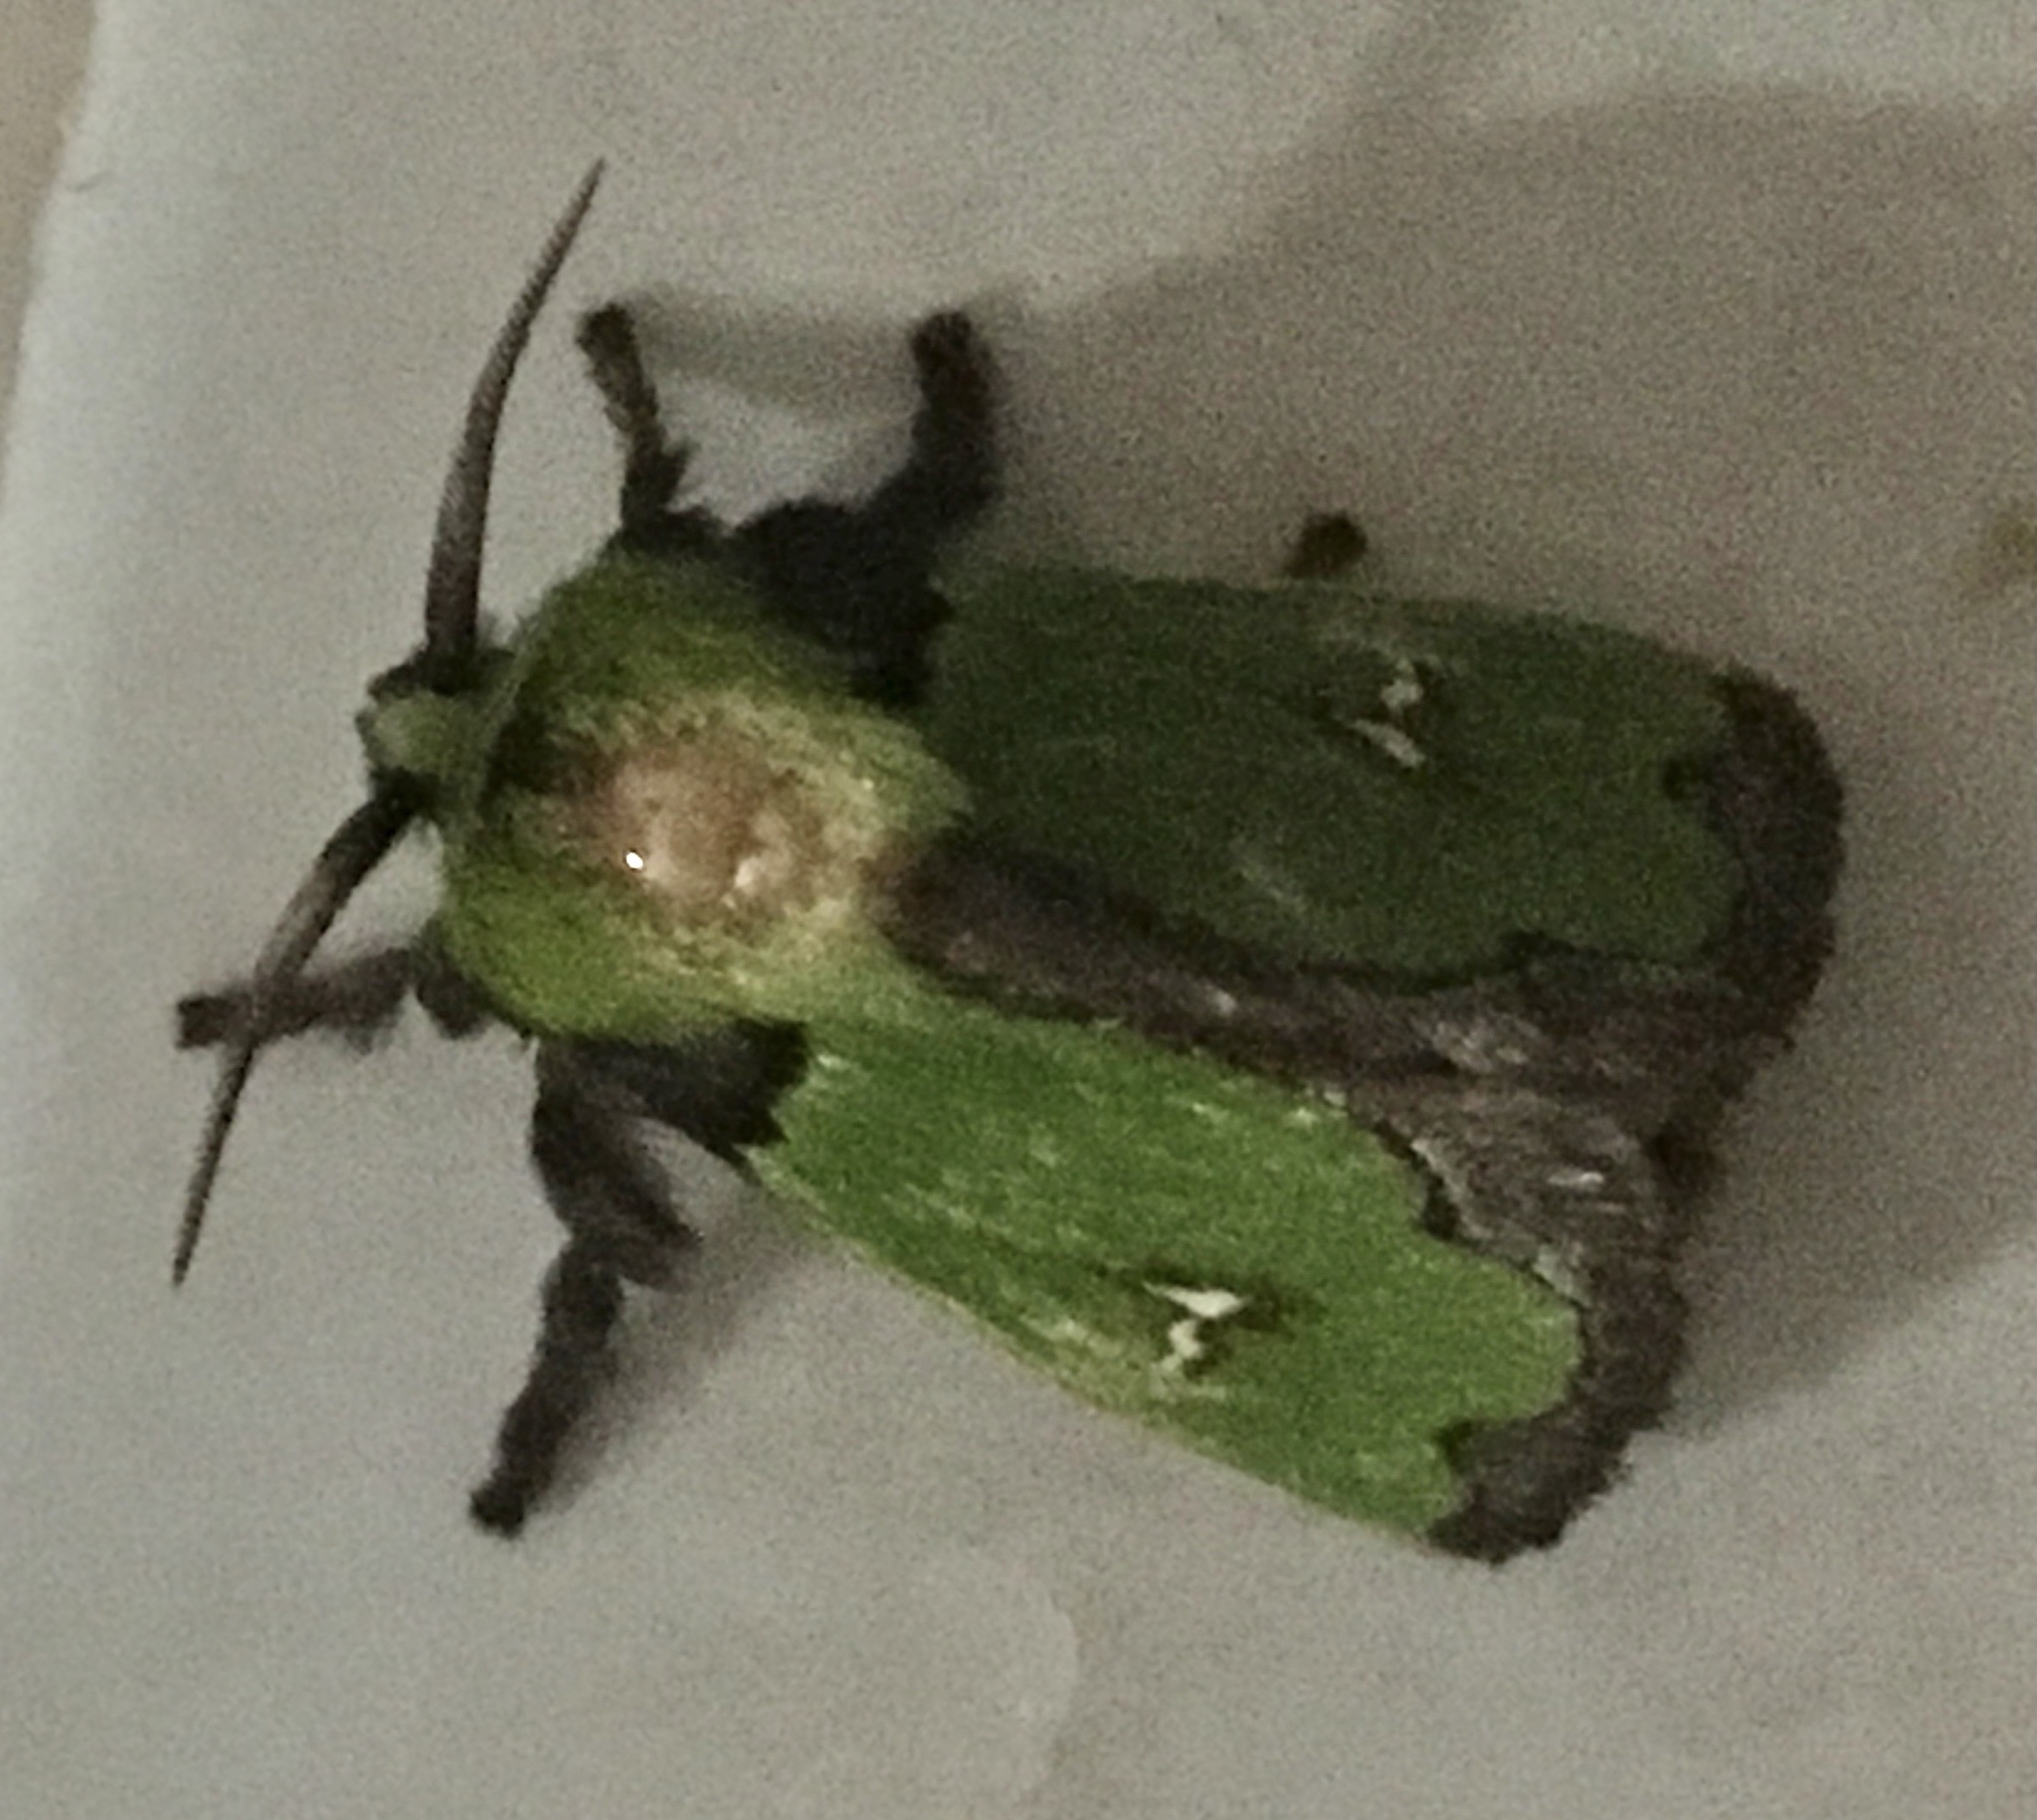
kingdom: Animalia
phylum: Arthropoda
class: Insecta
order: Lepidoptera
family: Limacodidae
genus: Parasa
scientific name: Parasa campylostagma
